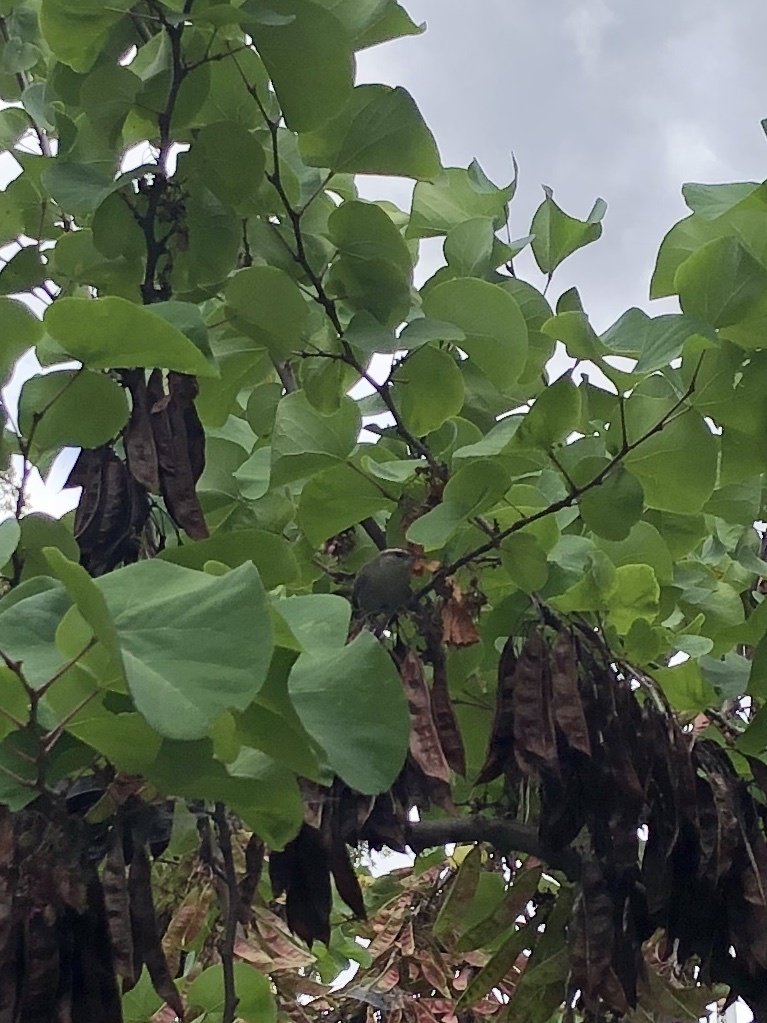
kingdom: Animalia
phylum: Chordata
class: Aves
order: Passeriformes
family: Troglodytidae
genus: Thryomanes
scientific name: Thryomanes bewickii
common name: Bewick's wren
